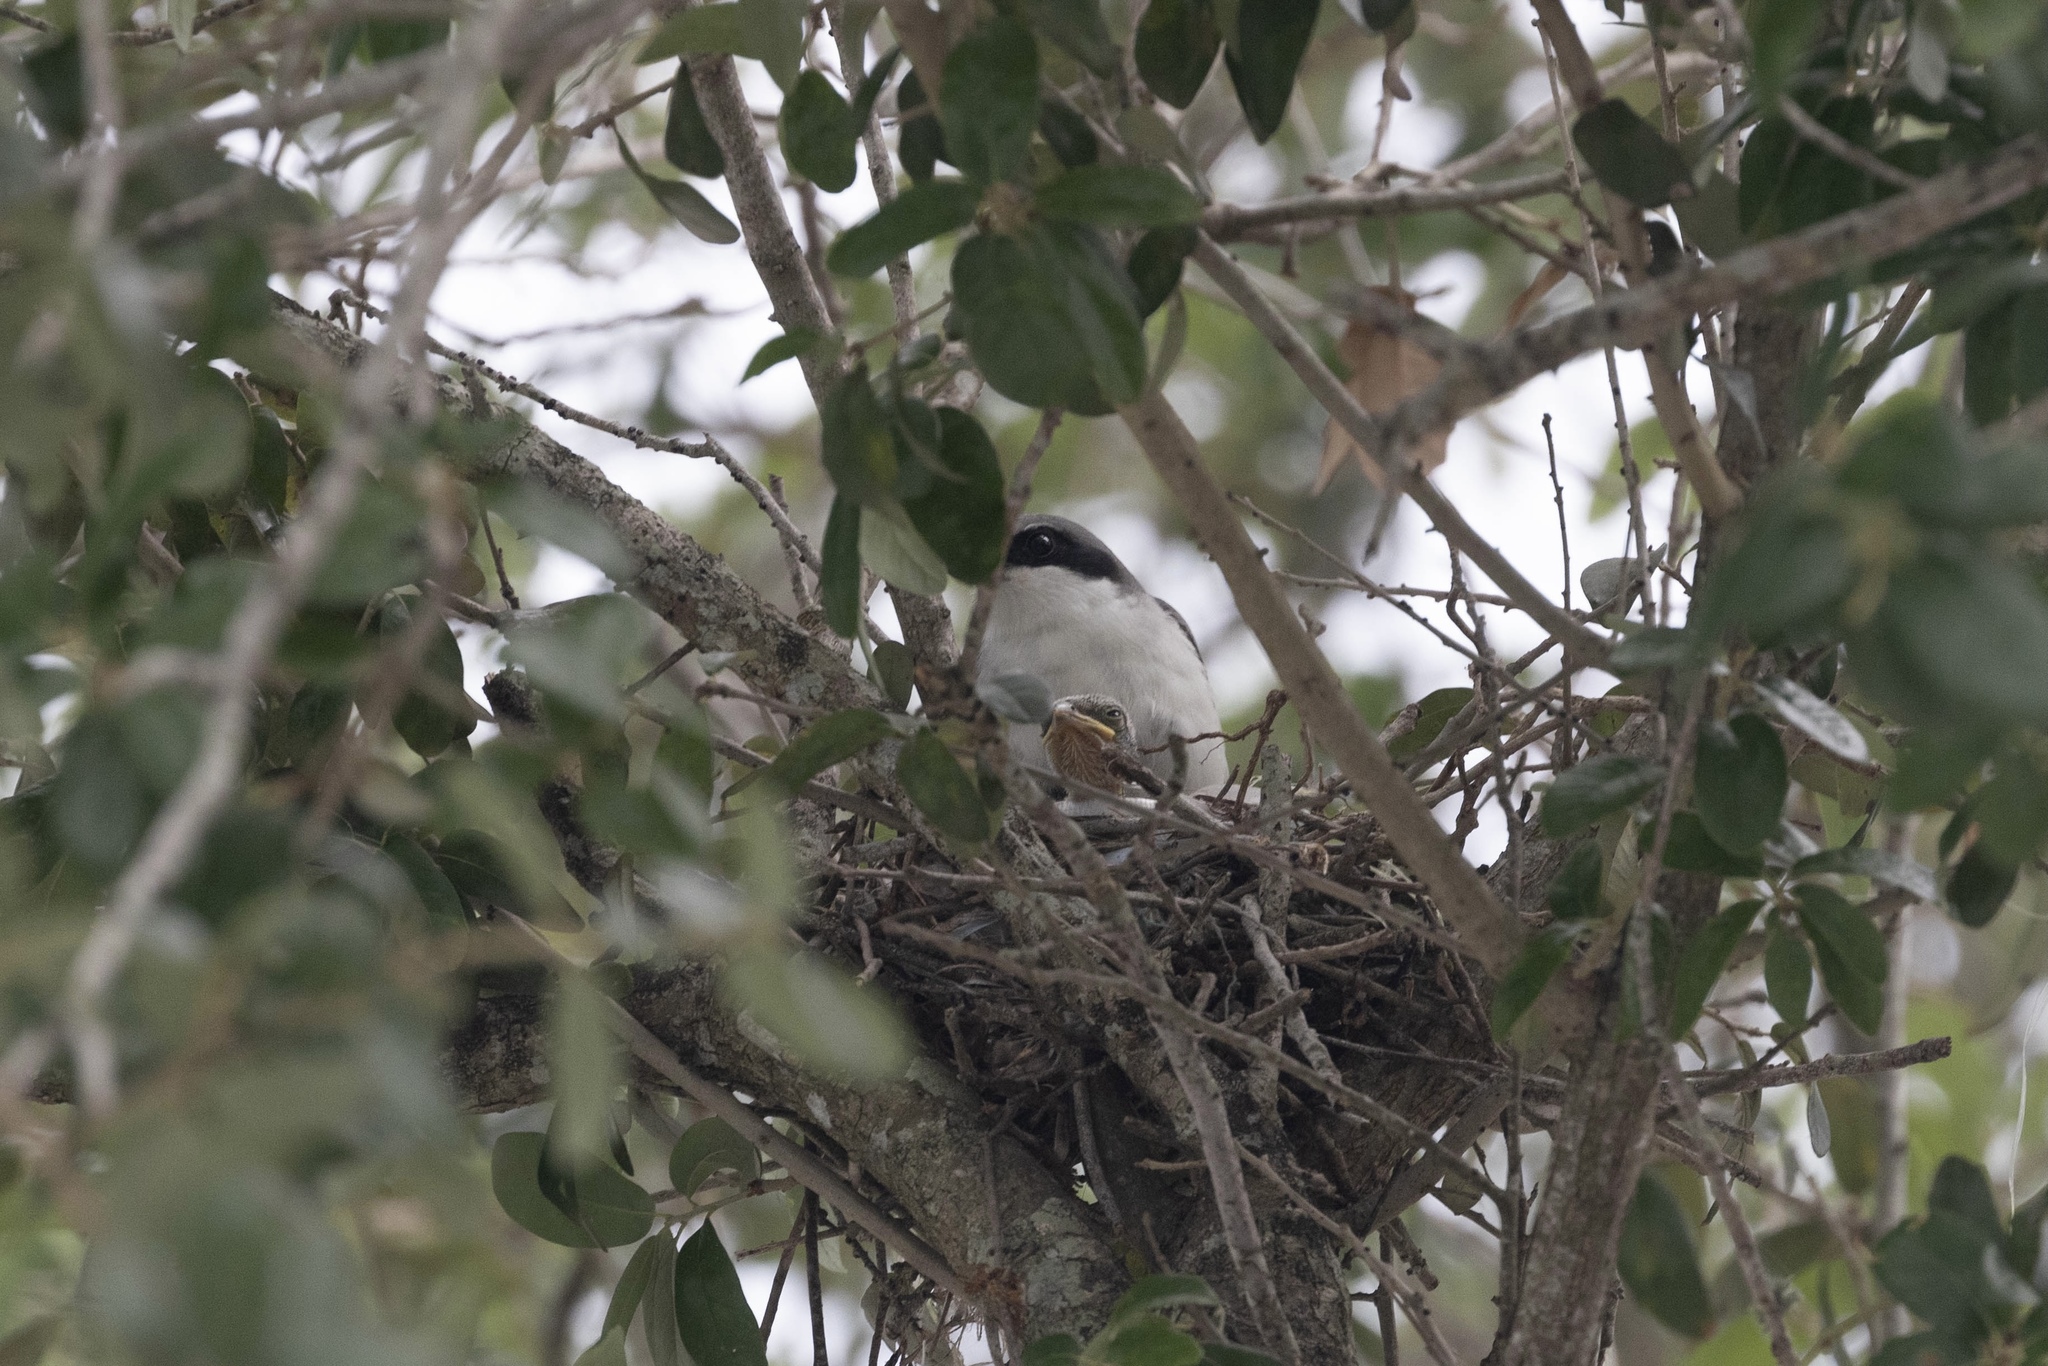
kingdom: Animalia
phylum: Chordata
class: Aves
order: Passeriformes
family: Laniidae
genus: Lanius
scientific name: Lanius ludovicianus
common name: Loggerhead shrike
